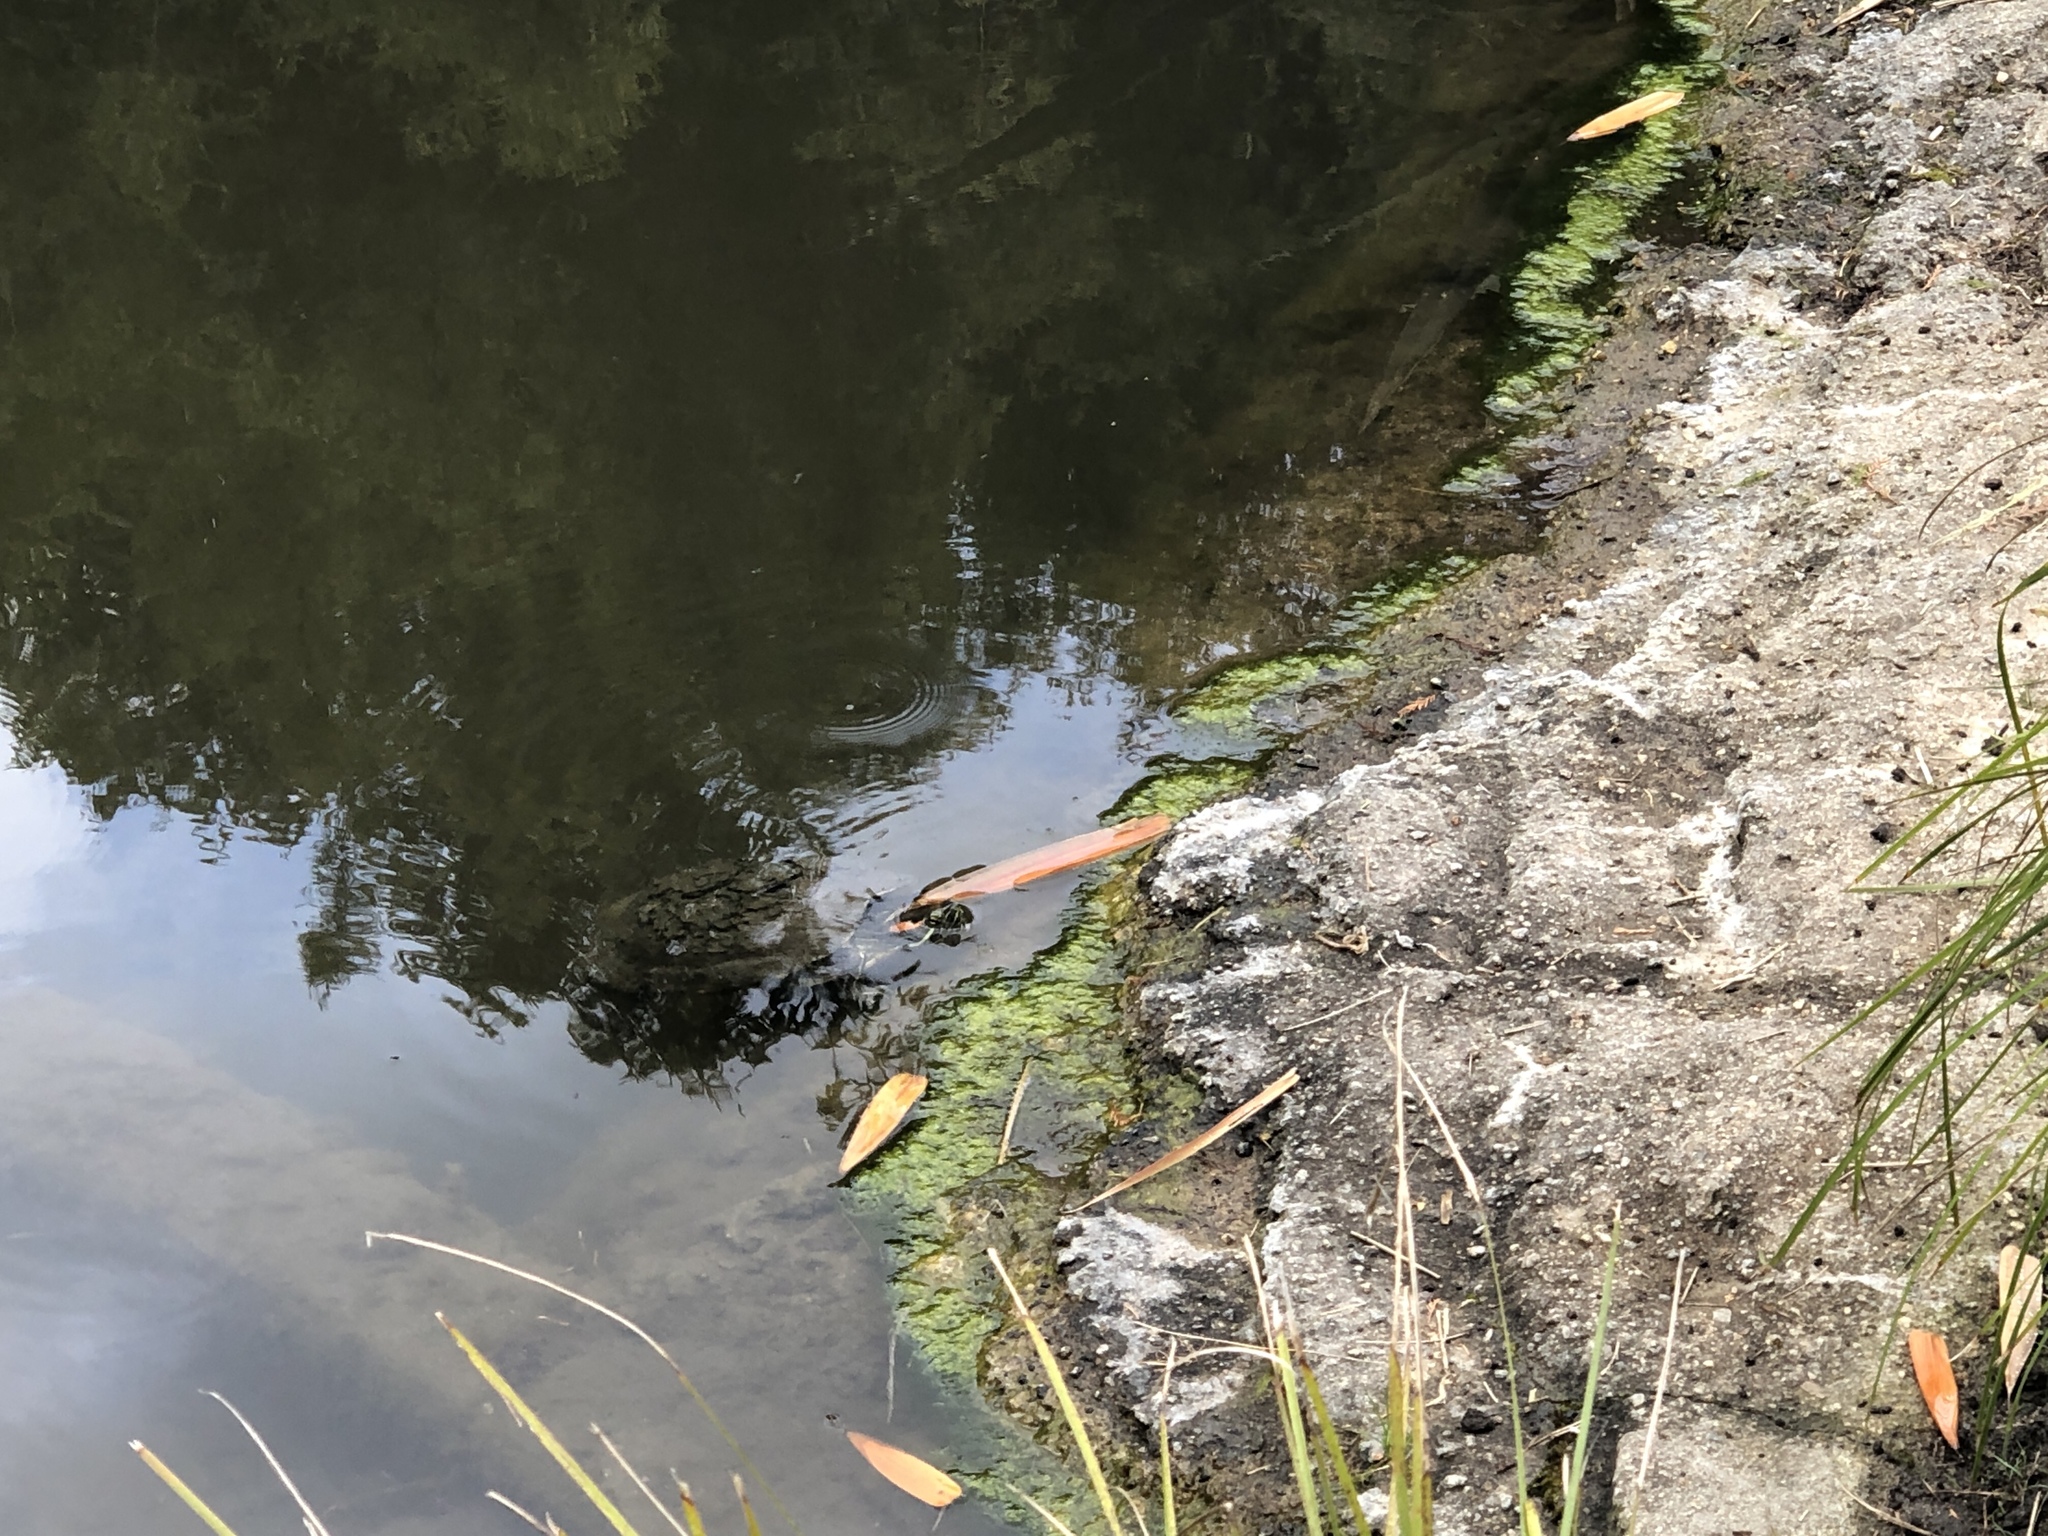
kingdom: Animalia
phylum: Chordata
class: Testudines
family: Emydidae
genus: Trachemys
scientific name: Trachemys scripta
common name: Slider
